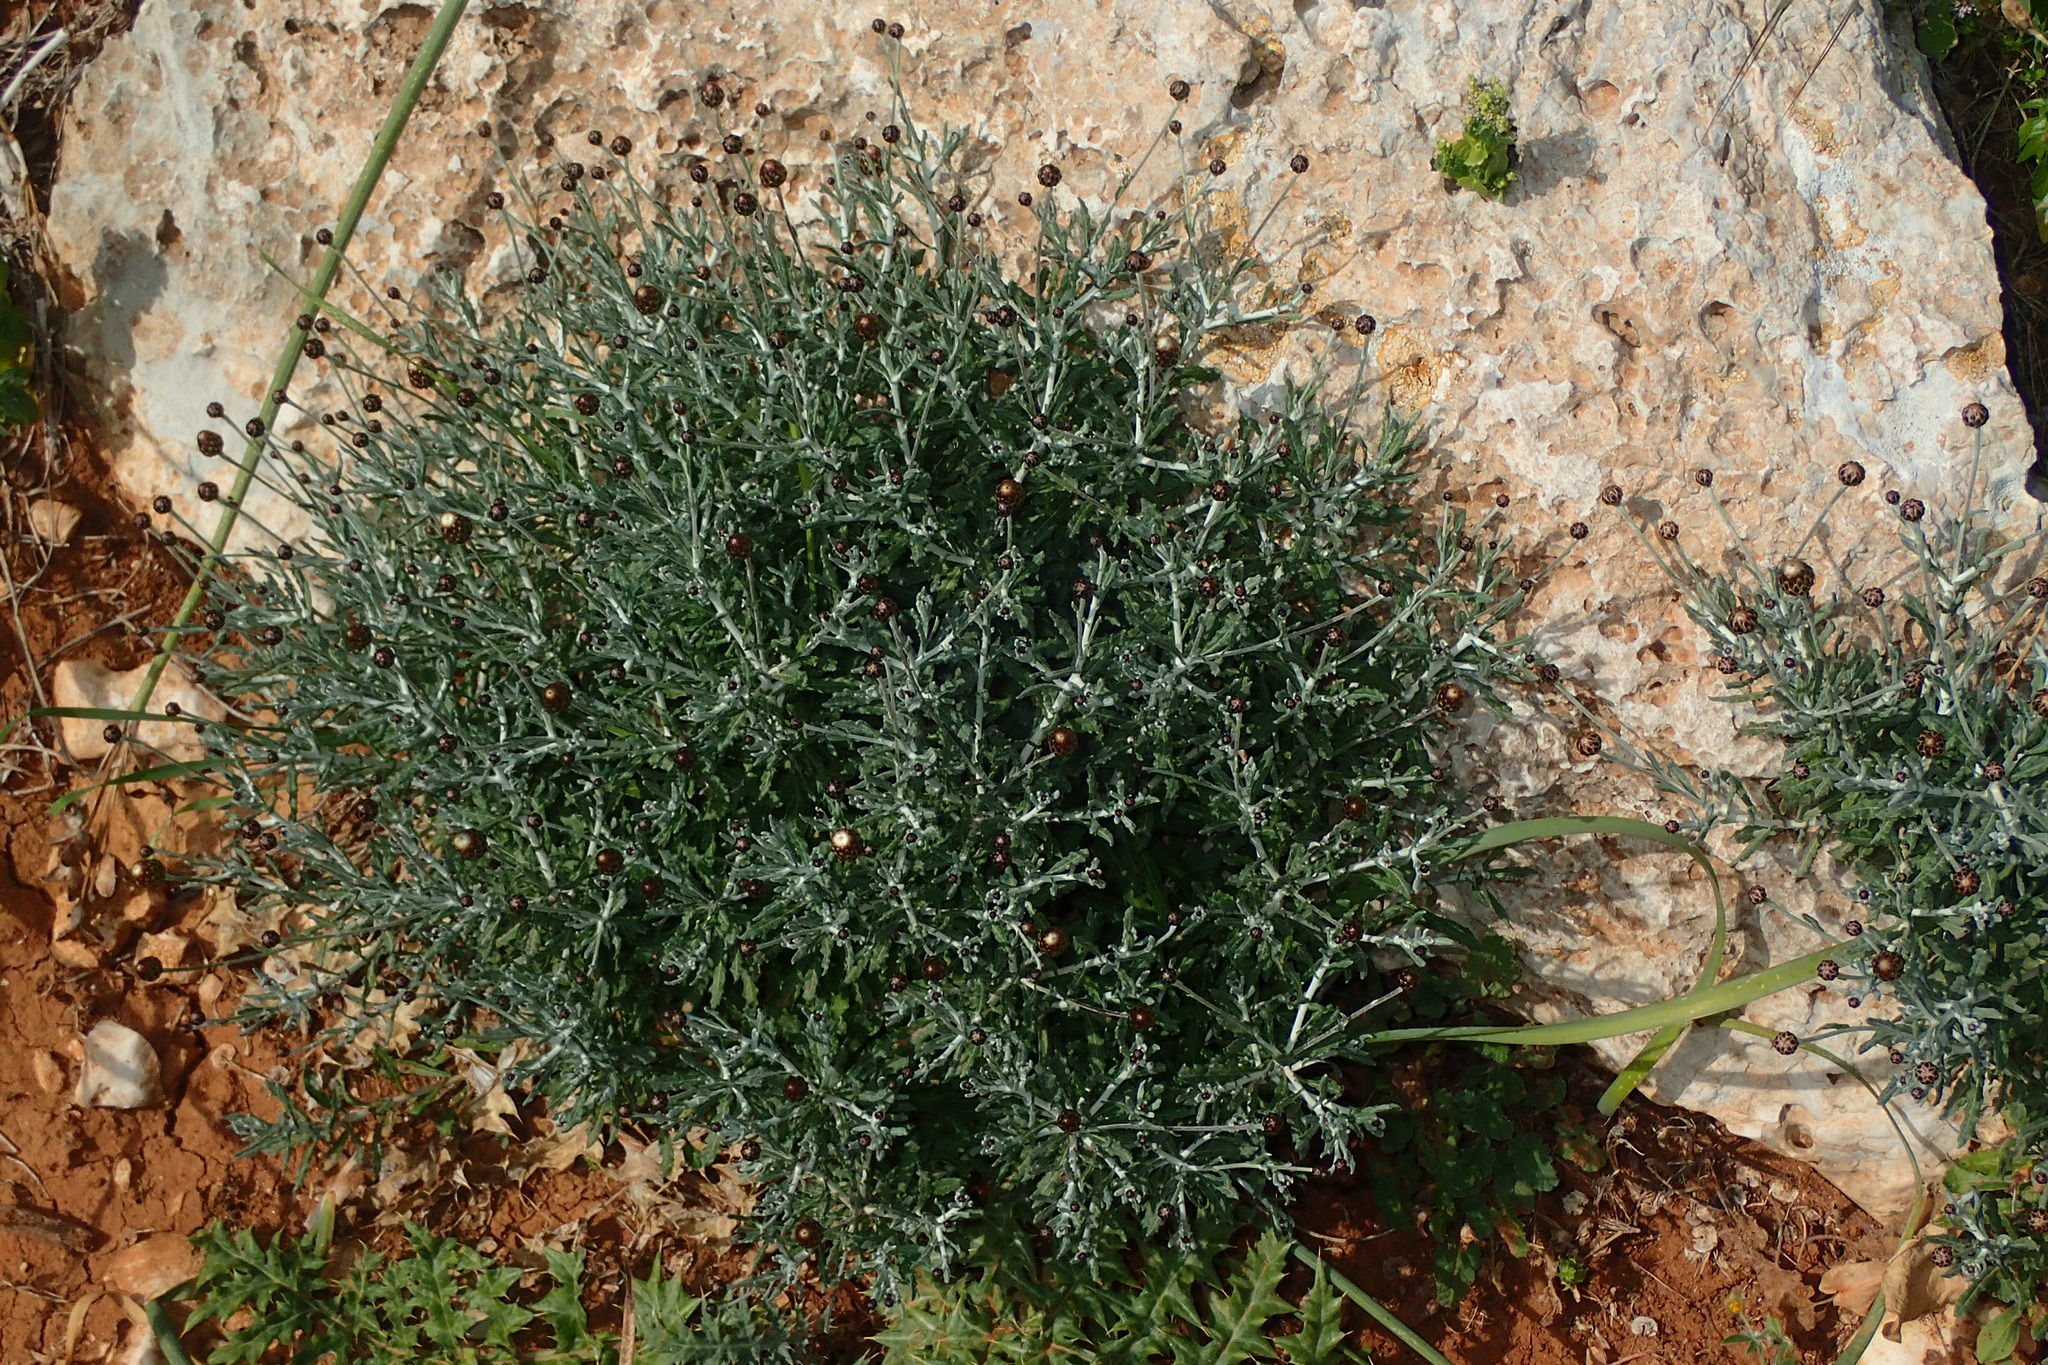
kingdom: Plantae
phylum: Tracheophyta
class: Magnoliopsida
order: Asterales
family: Asteraceae
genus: Phagnalon
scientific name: Phagnalon rupestre
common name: Rock phagnalon
